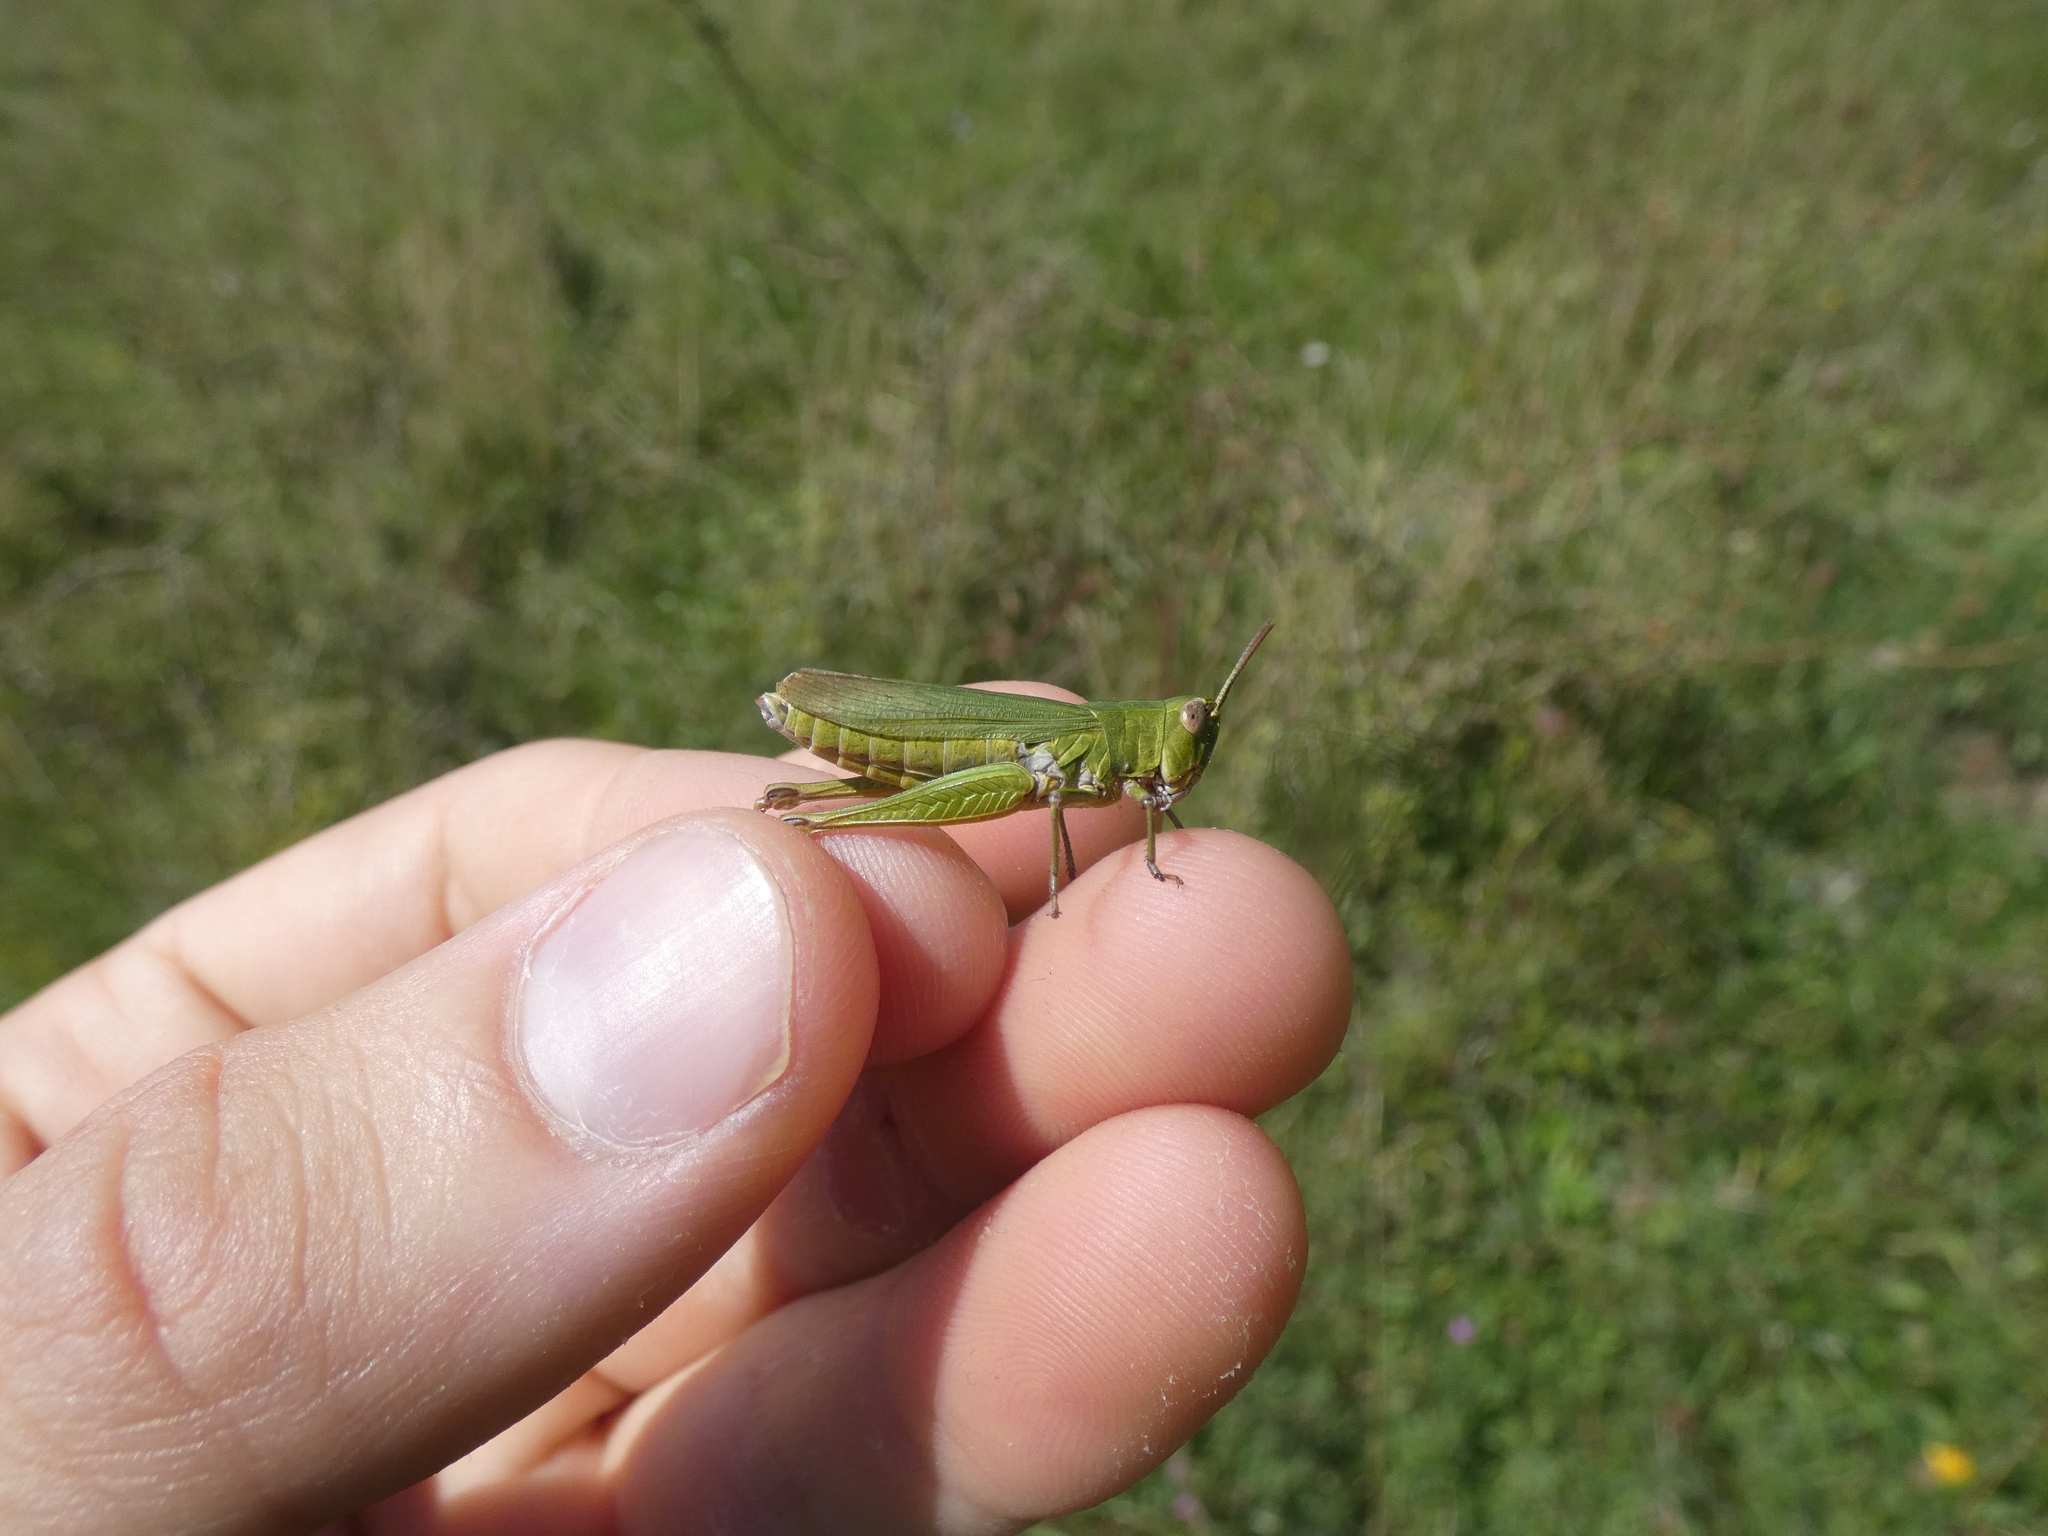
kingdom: Animalia
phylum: Arthropoda
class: Insecta
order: Orthoptera
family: Acrididae
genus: Chorthippus
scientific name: Chorthippus dorsatus
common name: Steppe grasshopper
